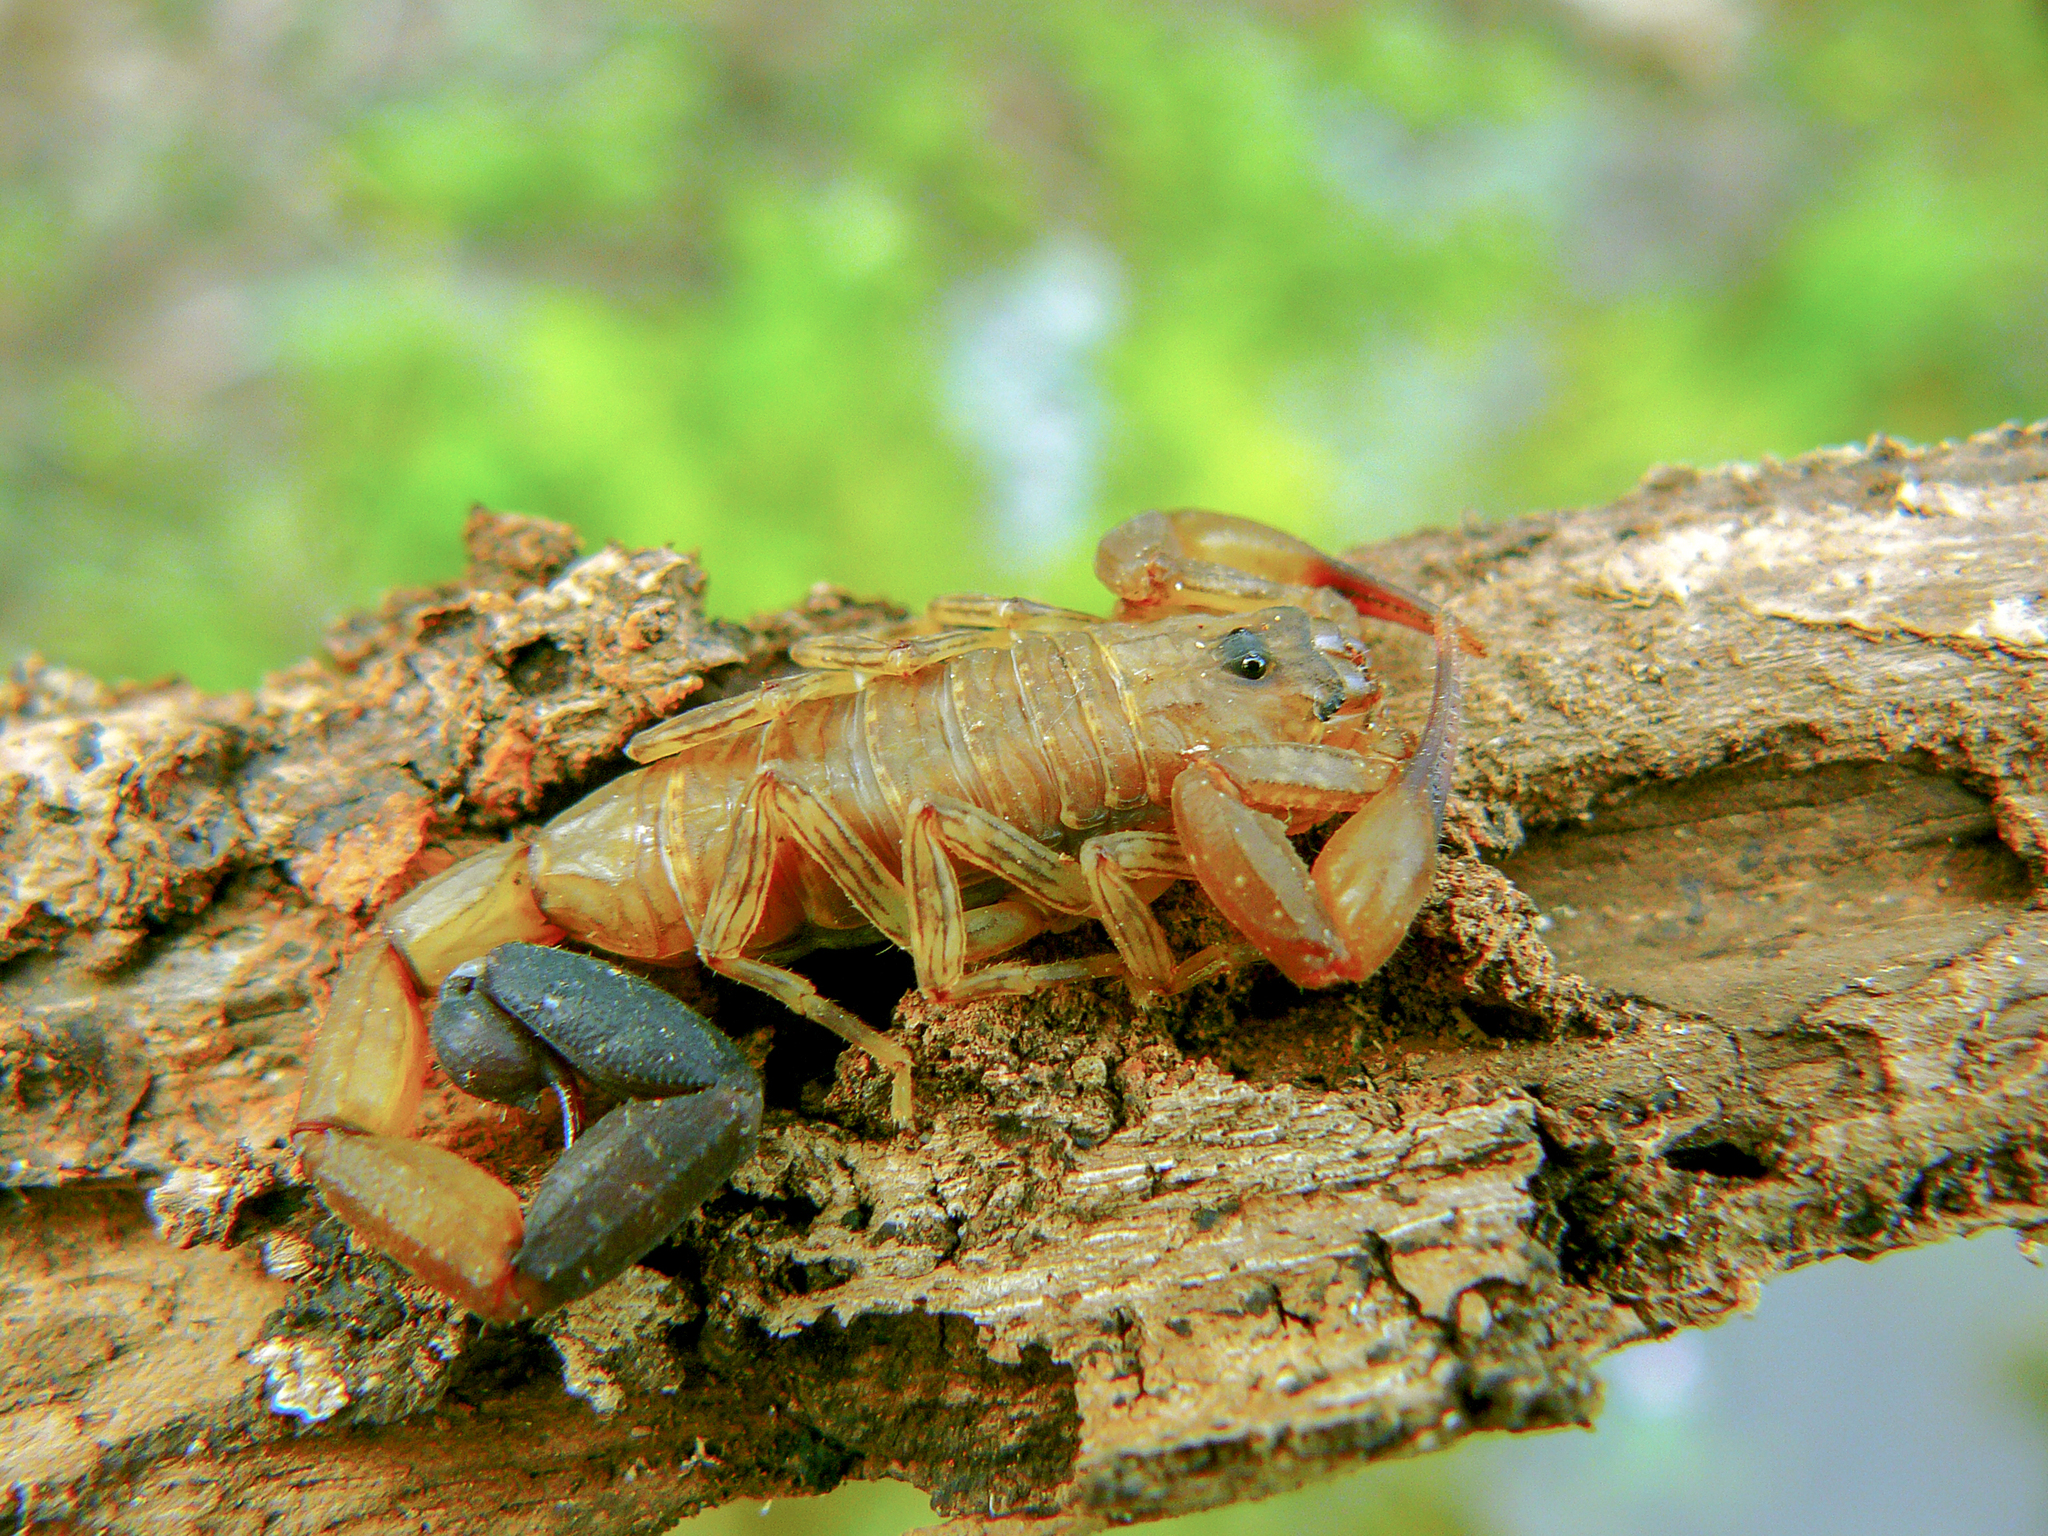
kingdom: Animalia
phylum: Arthropoda
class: Arachnida
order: Scorpiones
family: Buthidae
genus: Tityus
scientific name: Tityus gasci
